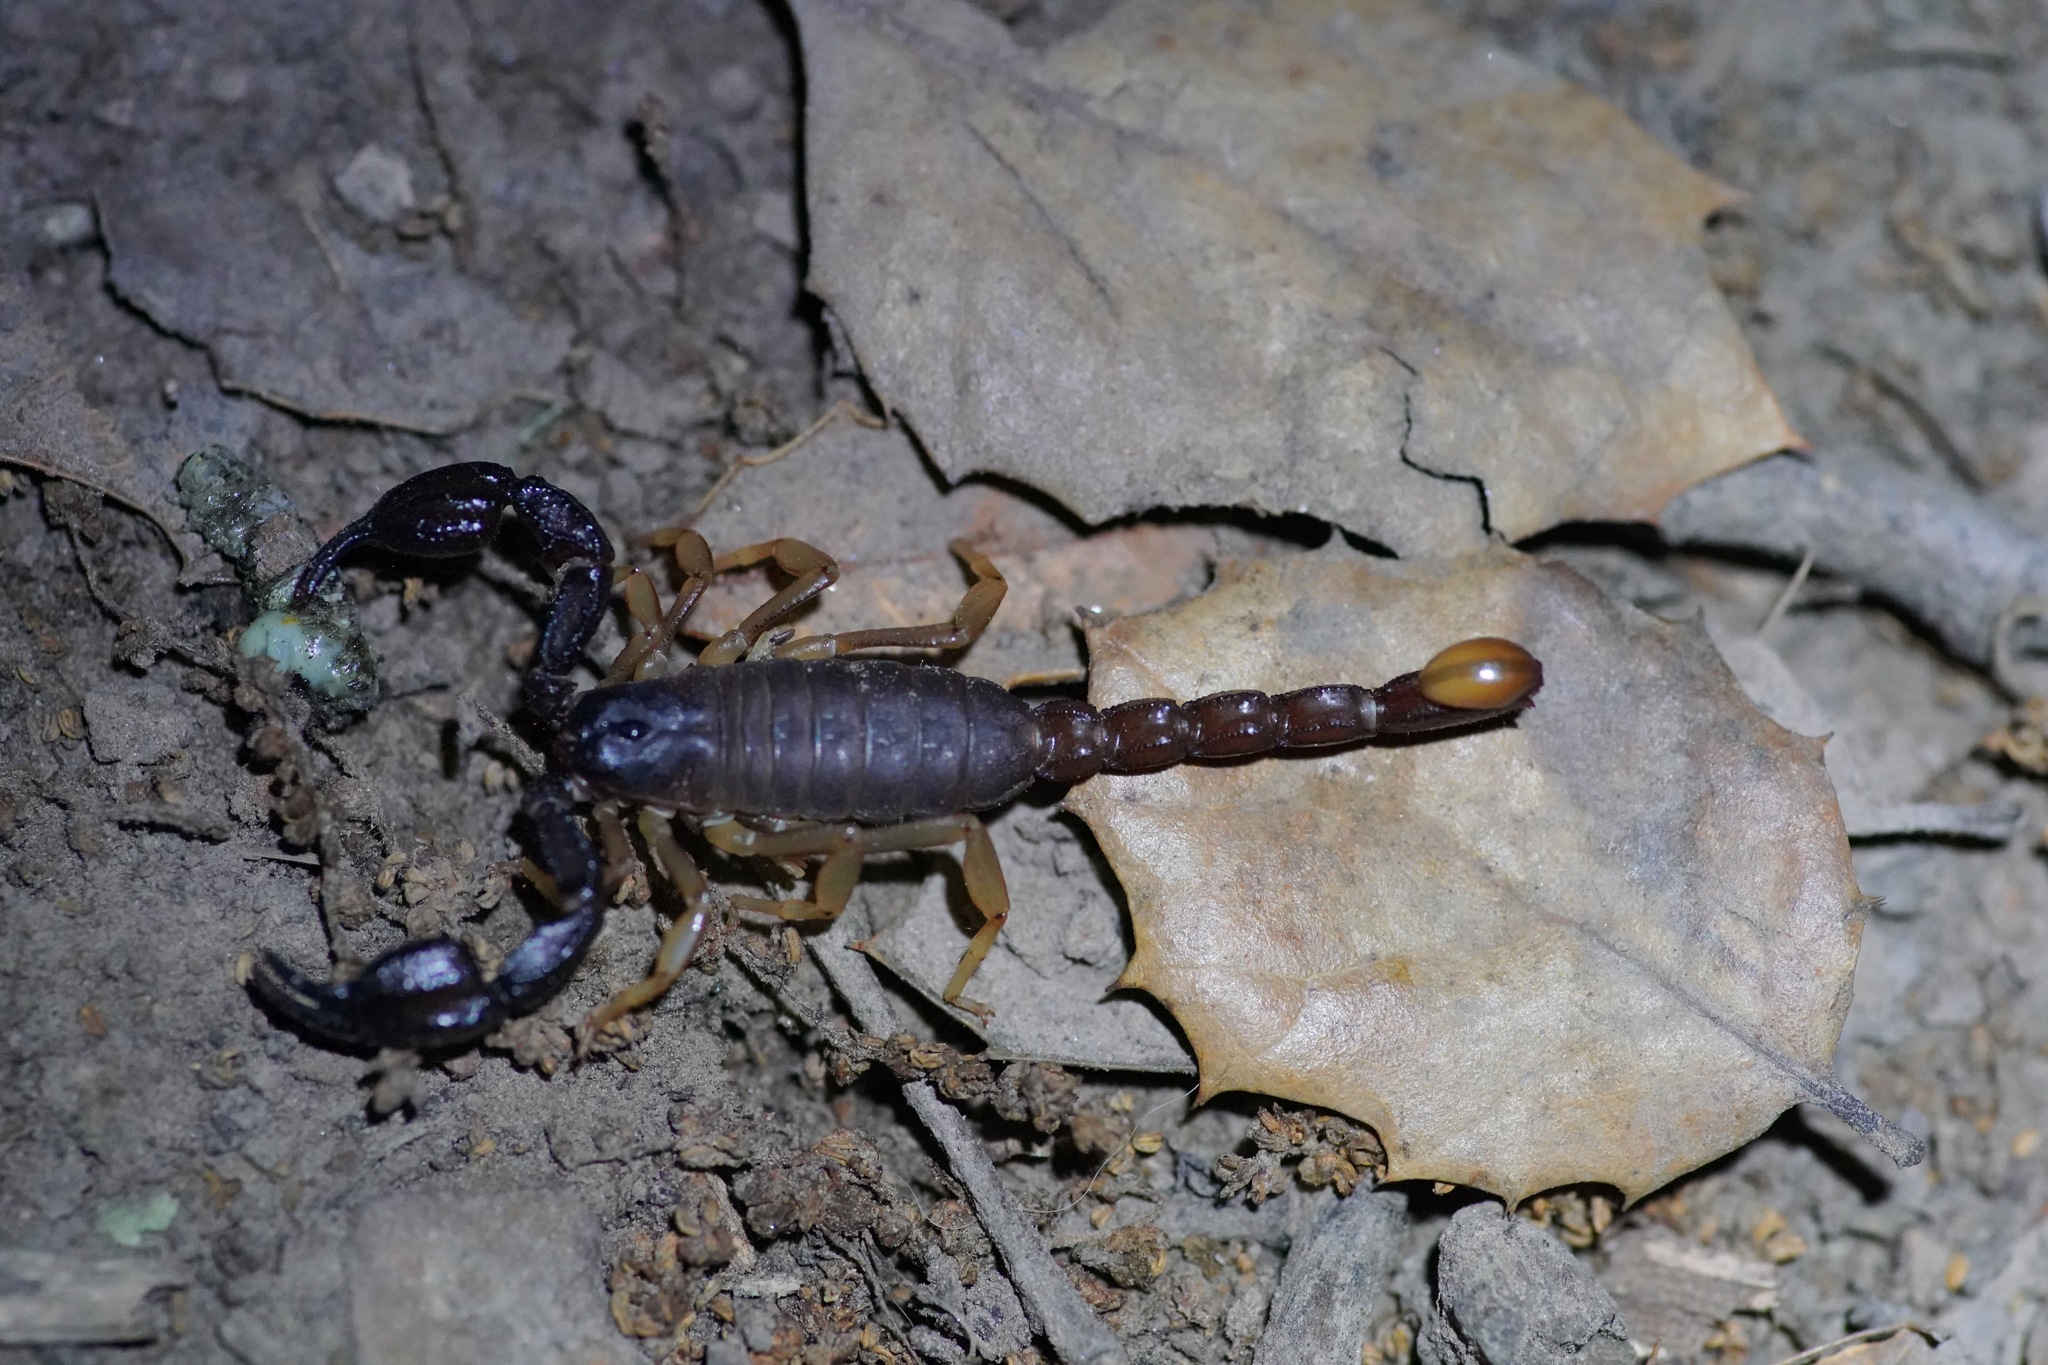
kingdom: Animalia
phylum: Arthropoda
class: Arachnida
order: Scorpiones
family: Chactidae
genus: Uroctonus
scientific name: Uroctonus mordax
